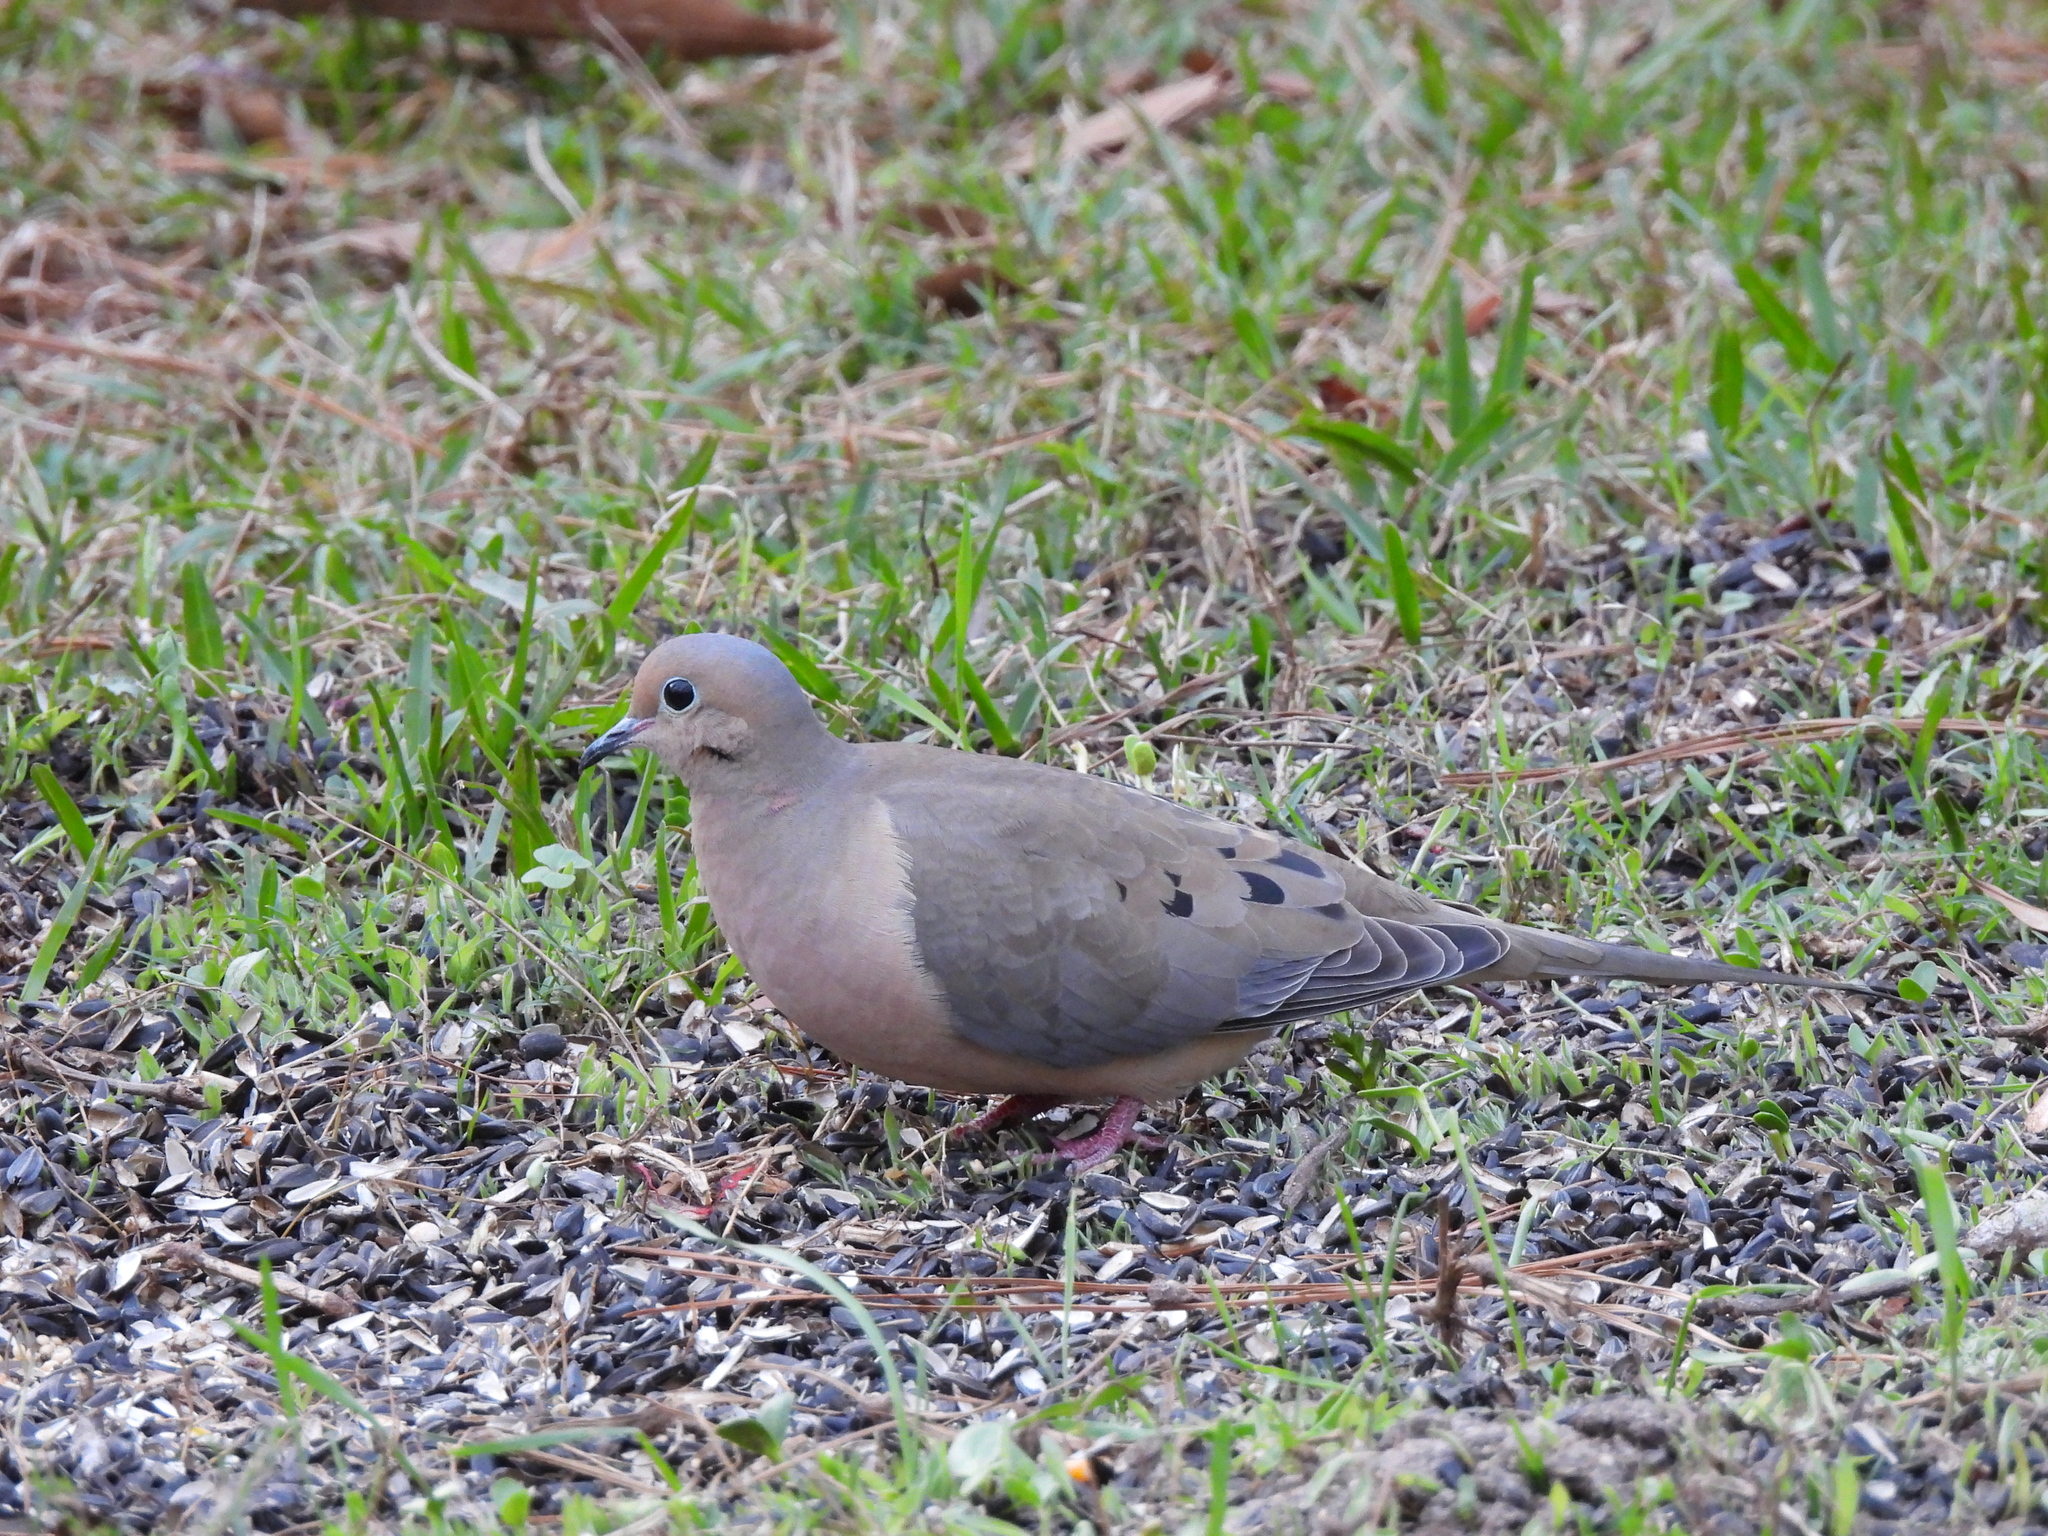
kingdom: Animalia
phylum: Chordata
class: Aves
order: Columbiformes
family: Columbidae
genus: Zenaida
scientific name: Zenaida macroura
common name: Mourning dove
